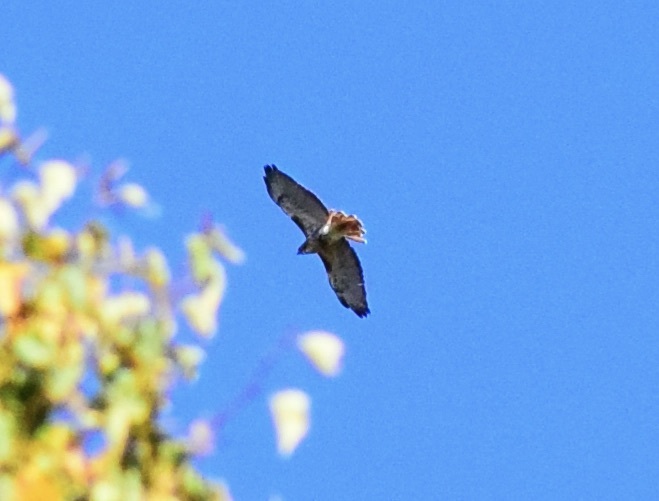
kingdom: Animalia
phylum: Chordata
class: Aves
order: Accipitriformes
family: Accipitridae
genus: Buteo
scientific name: Buteo jamaicensis
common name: Red-tailed hawk
